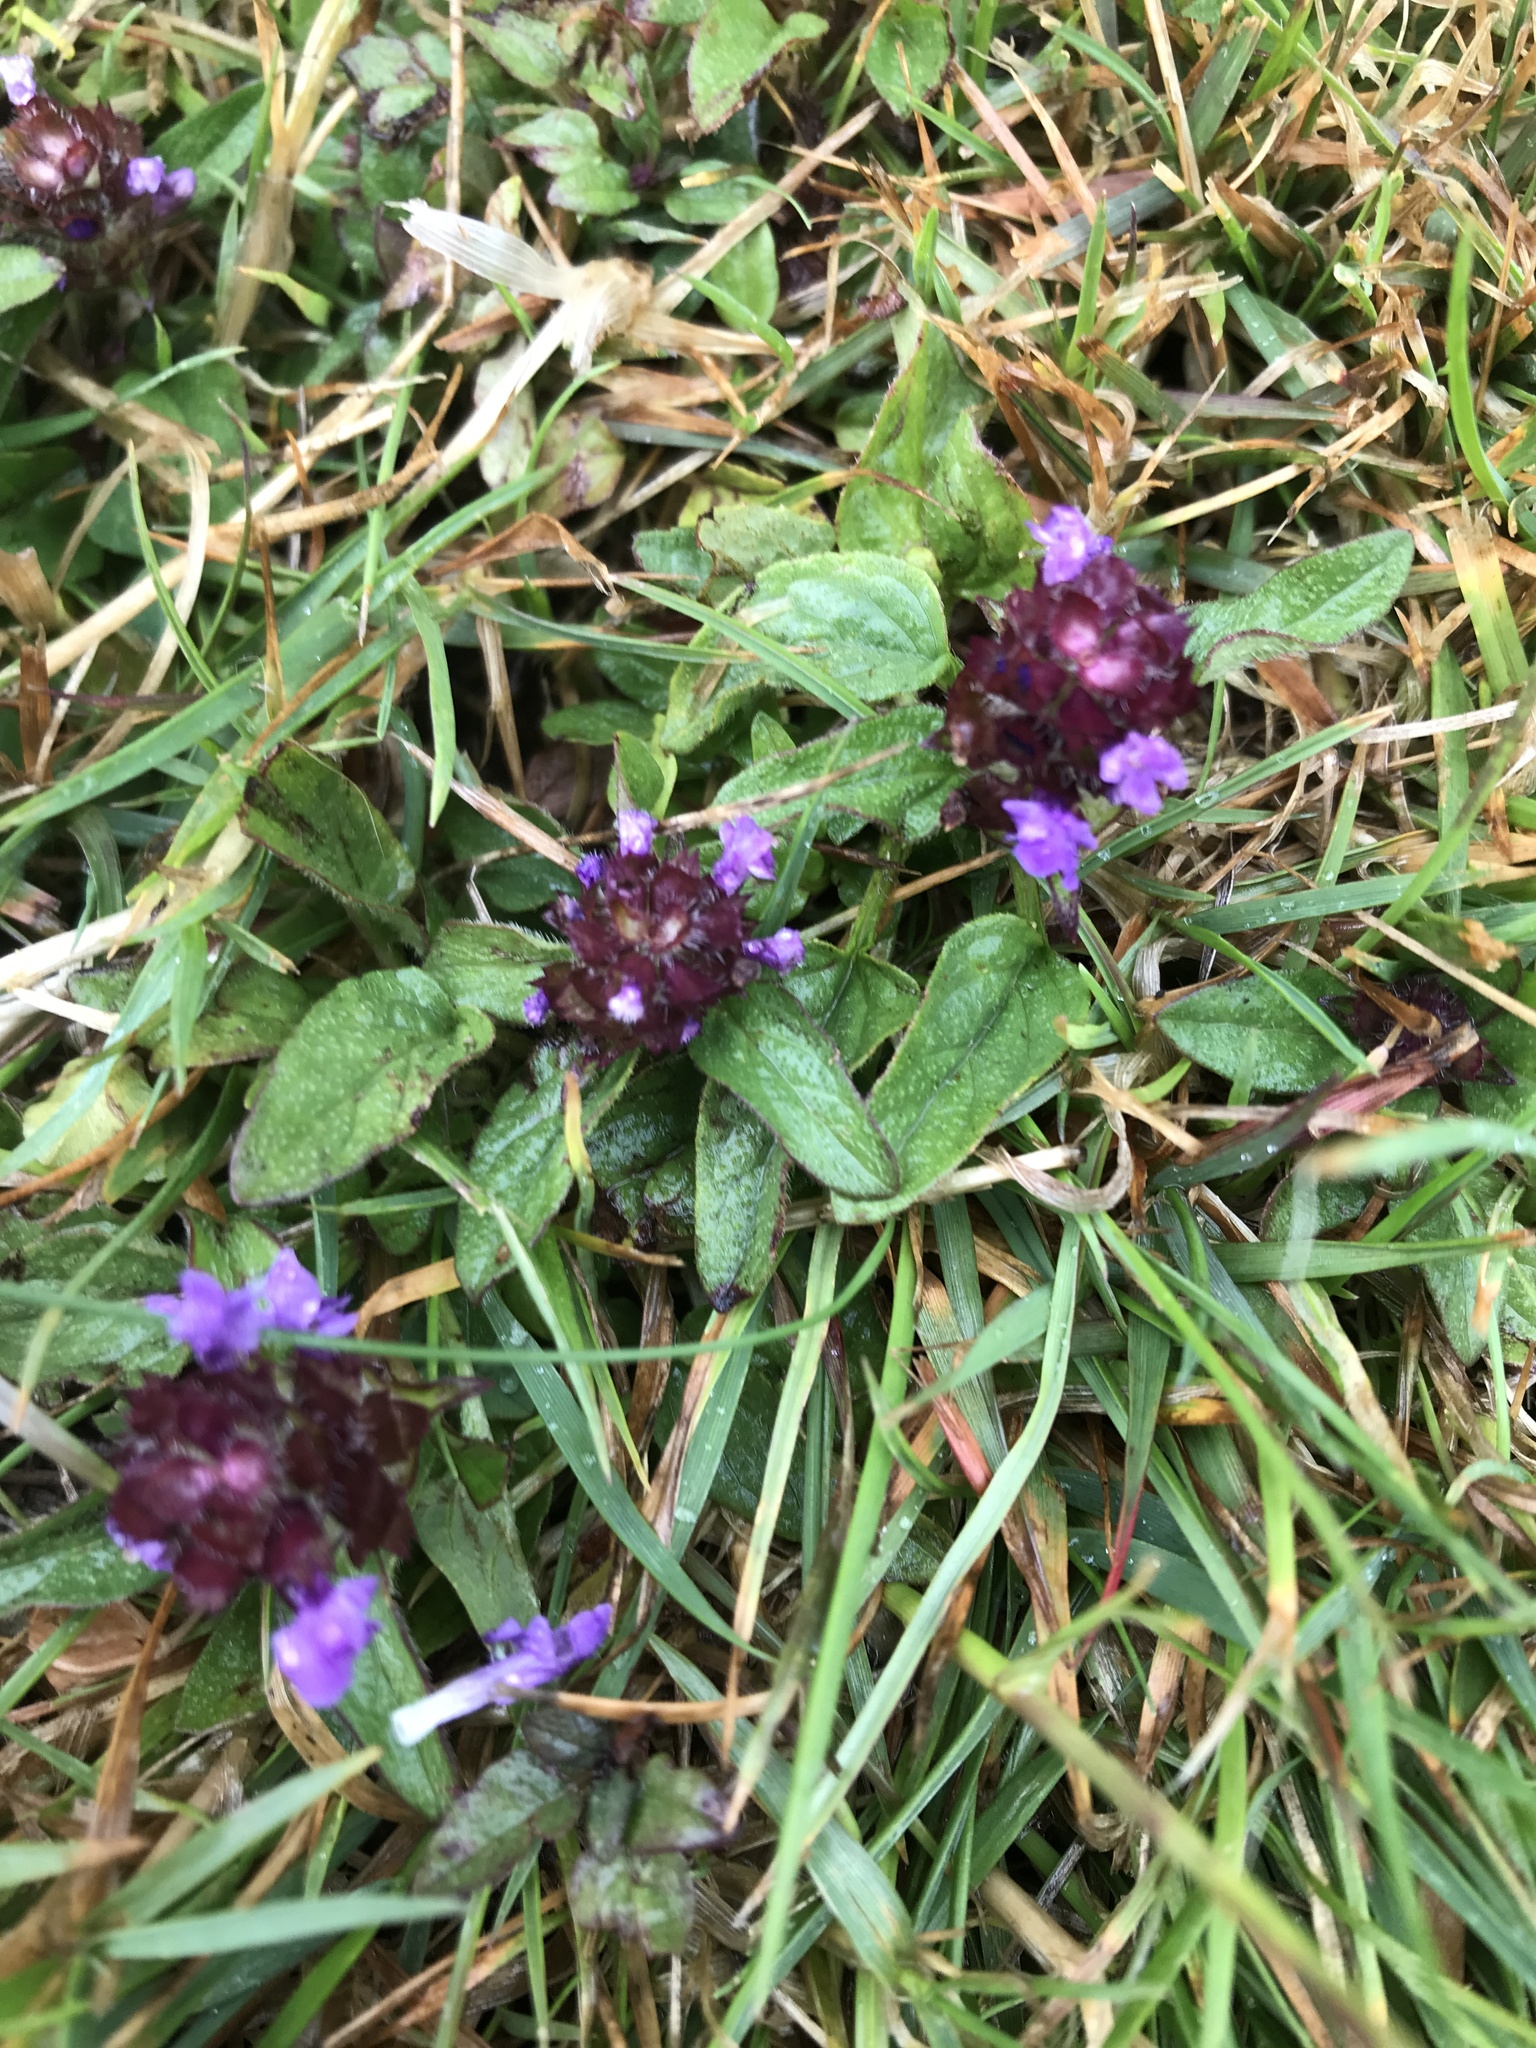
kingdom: Plantae
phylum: Tracheophyta
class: Magnoliopsida
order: Lamiales
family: Lamiaceae
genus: Prunella
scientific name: Prunella vulgaris
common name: Heal-all
